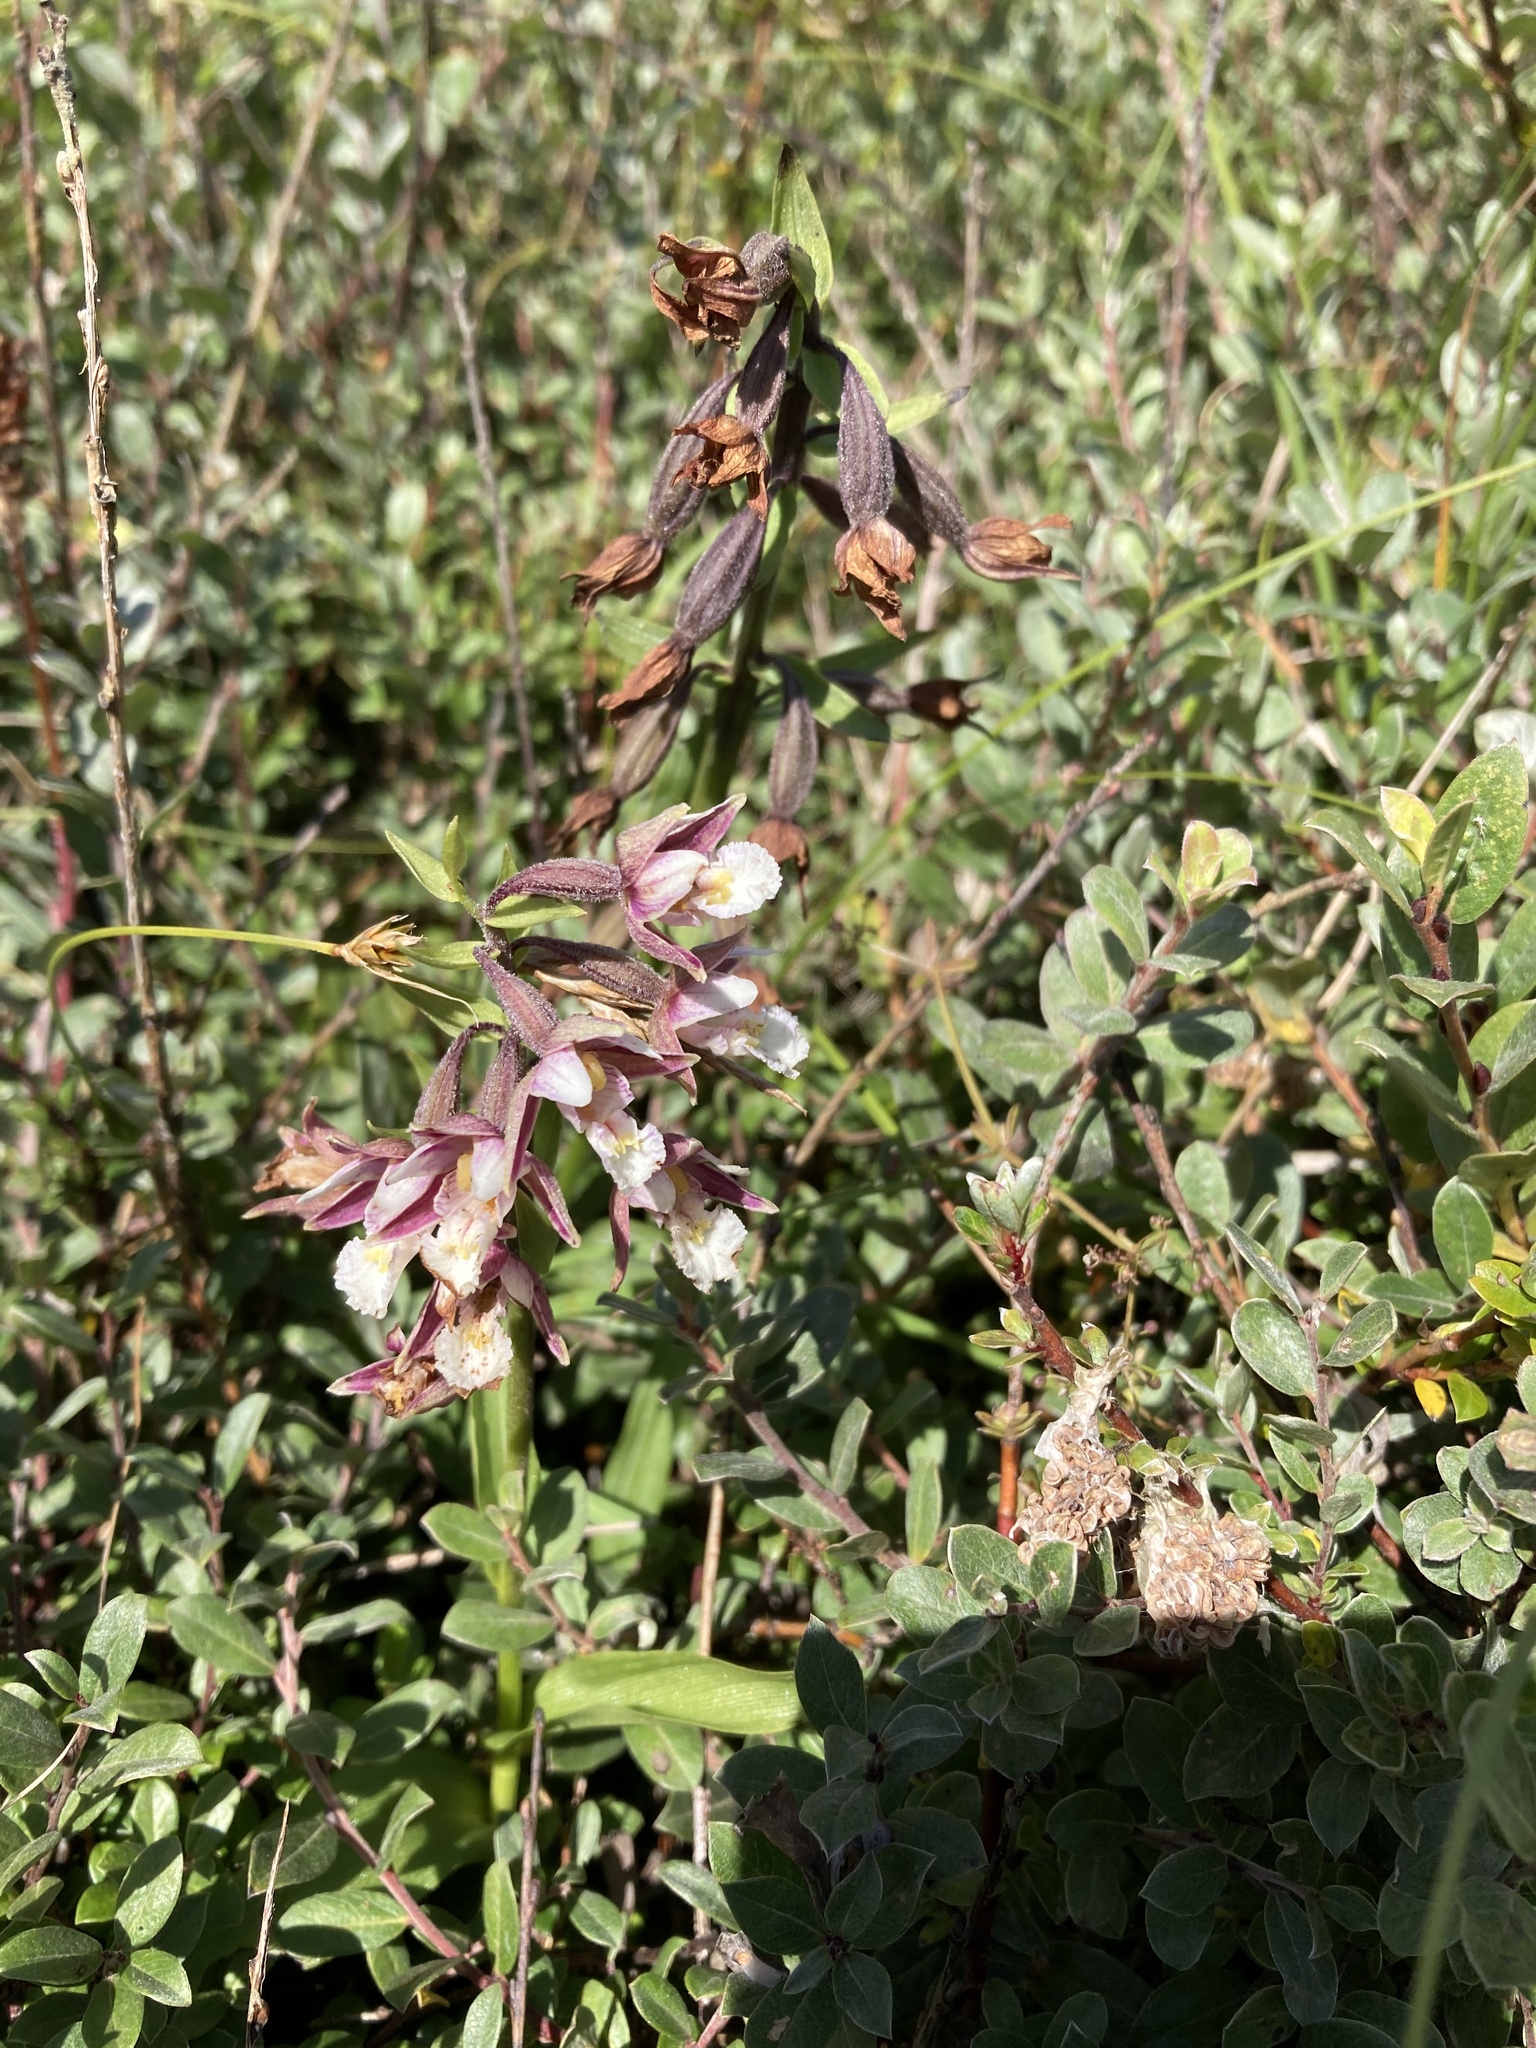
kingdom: Plantae
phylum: Tracheophyta
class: Liliopsida
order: Asparagales
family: Orchidaceae
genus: Epipactis
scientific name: Epipactis palustris
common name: Marsh helleborine
